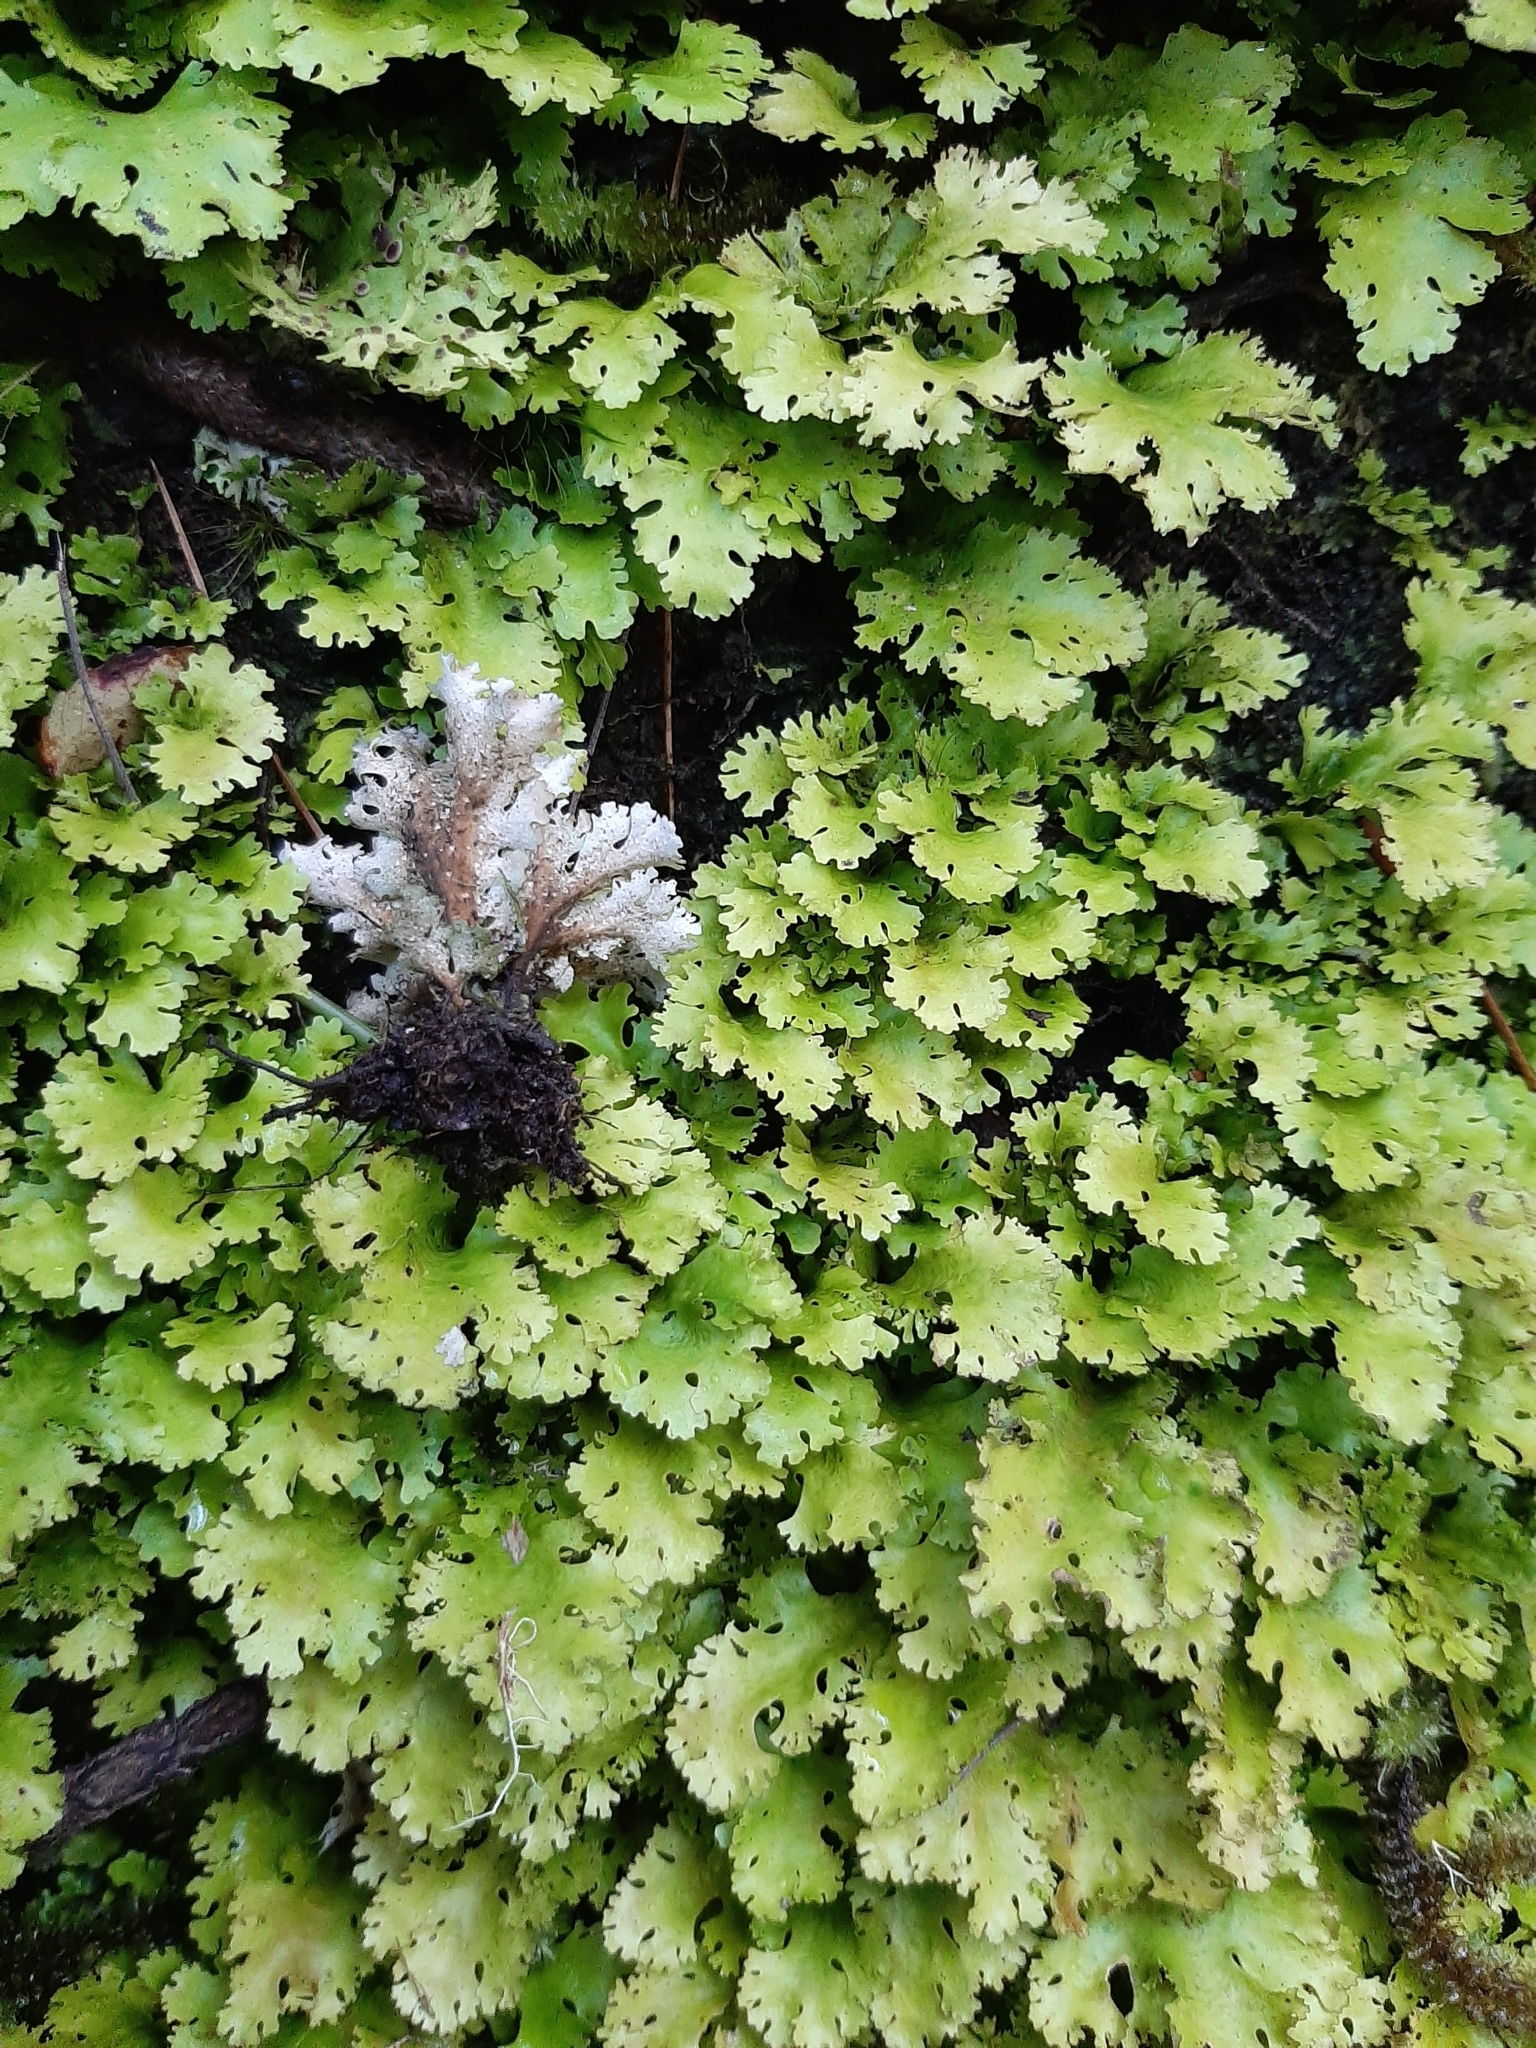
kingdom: Fungi
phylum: Ascomycota
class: Lecanoromycetes
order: Peltigerales
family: Lobariaceae
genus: Sticta
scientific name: Sticta filix
